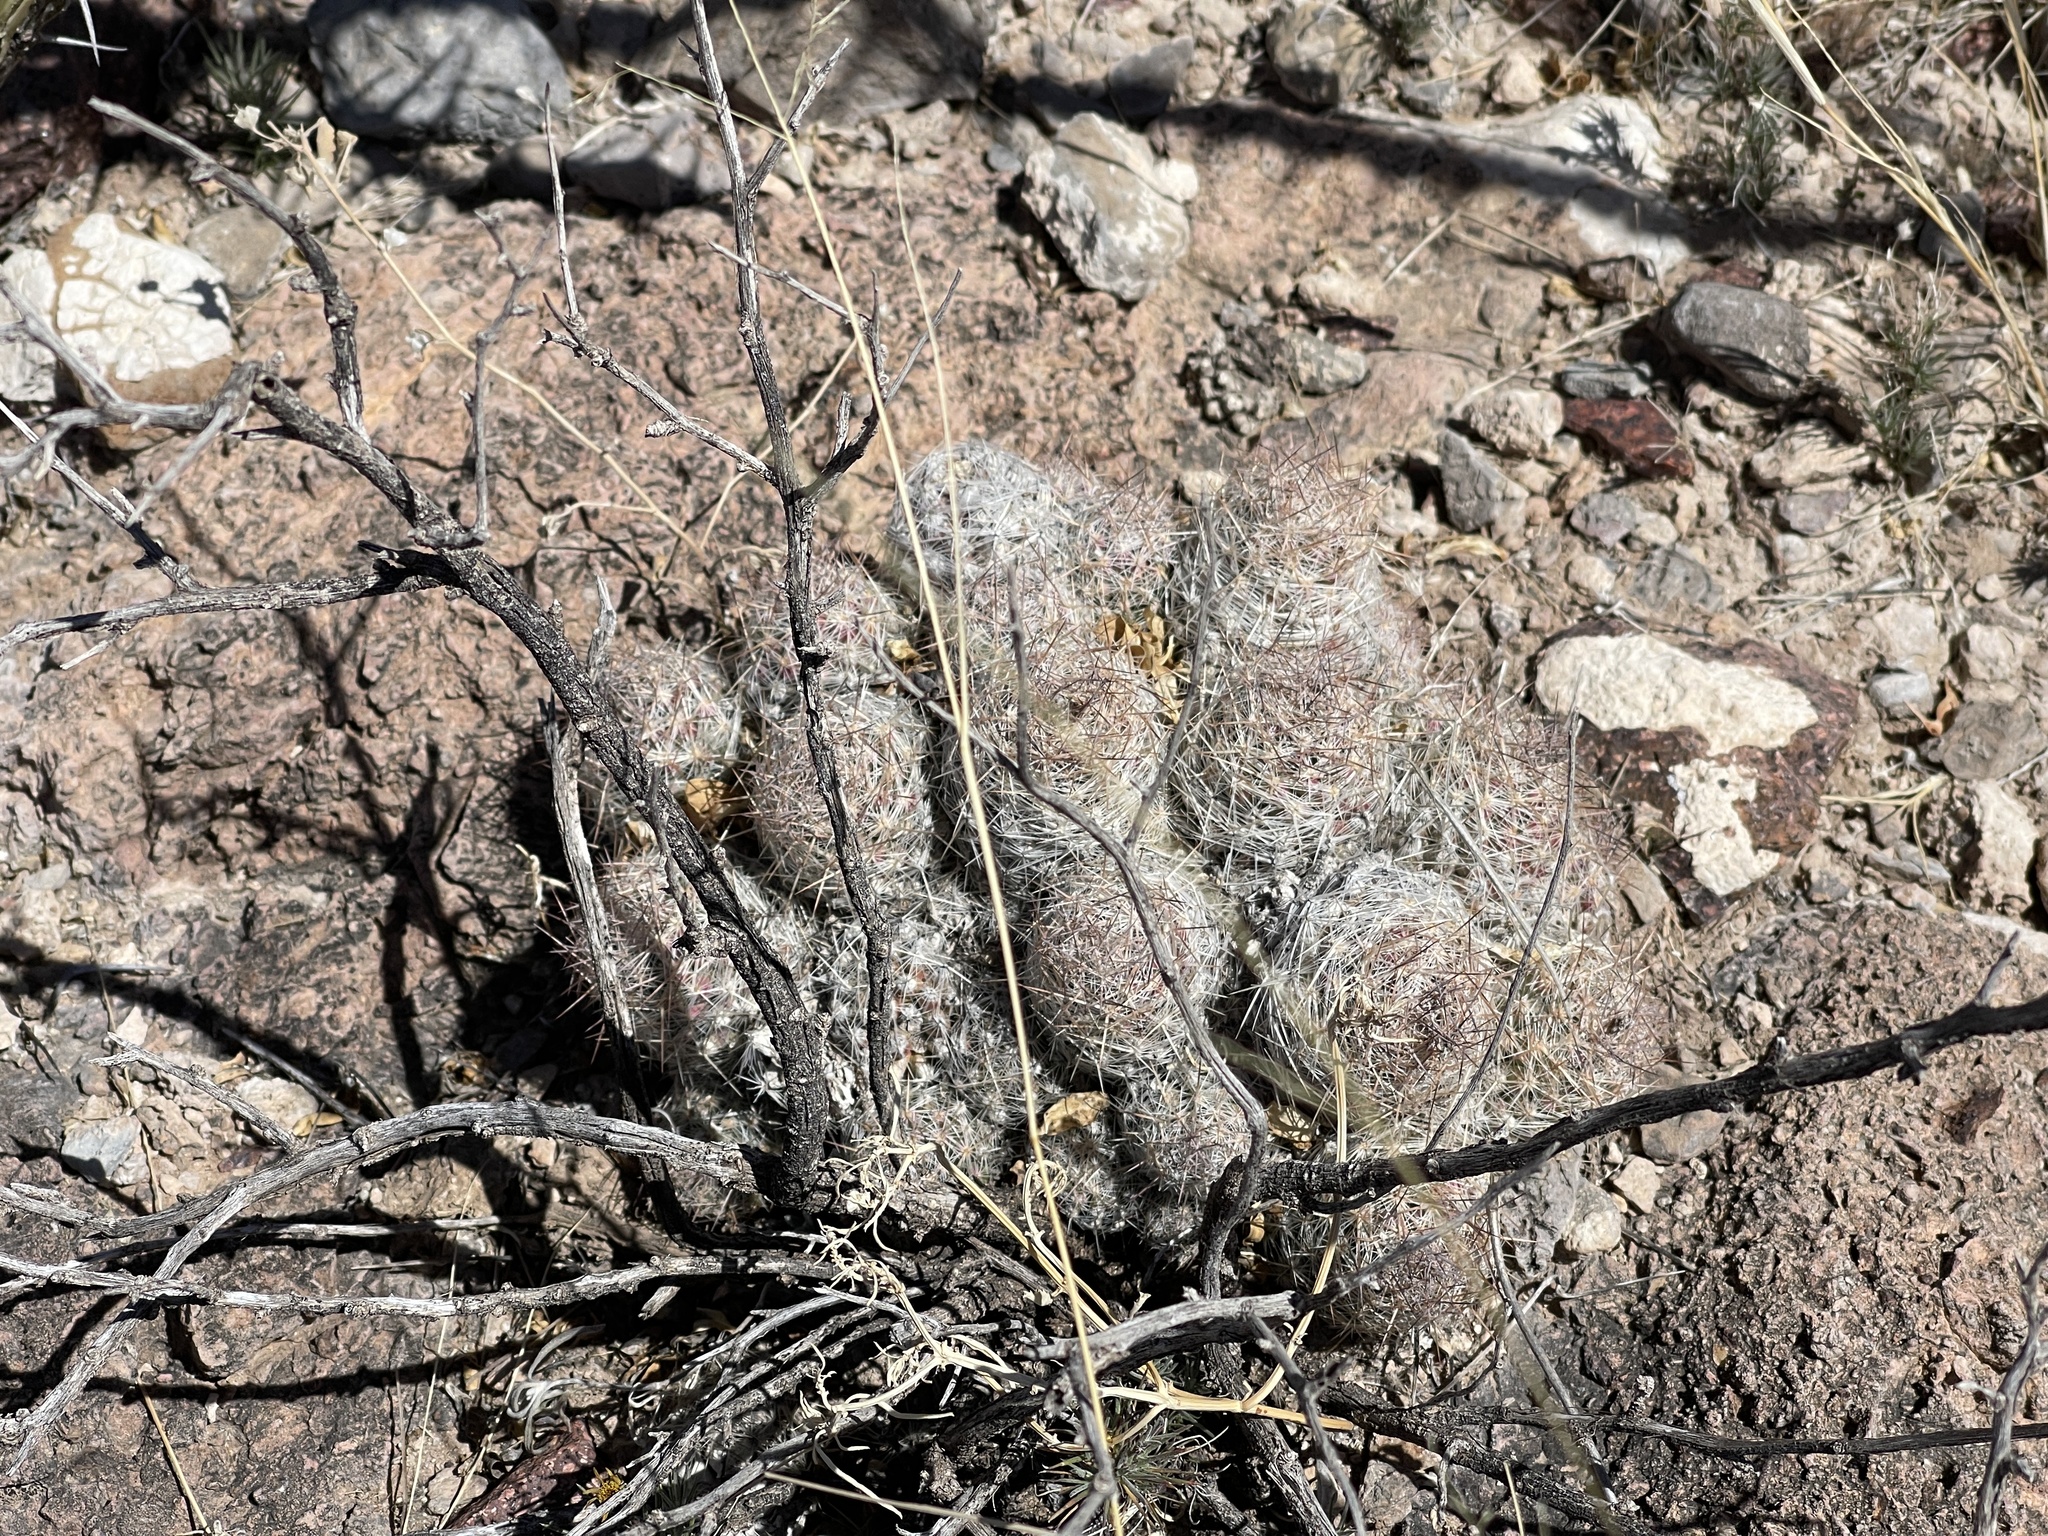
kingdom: Plantae
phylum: Tracheophyta
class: Magnoliopsida
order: Caryophyllales
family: Cactaceae
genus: Pelecyphora
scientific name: Pelecyphora tuberculosa
